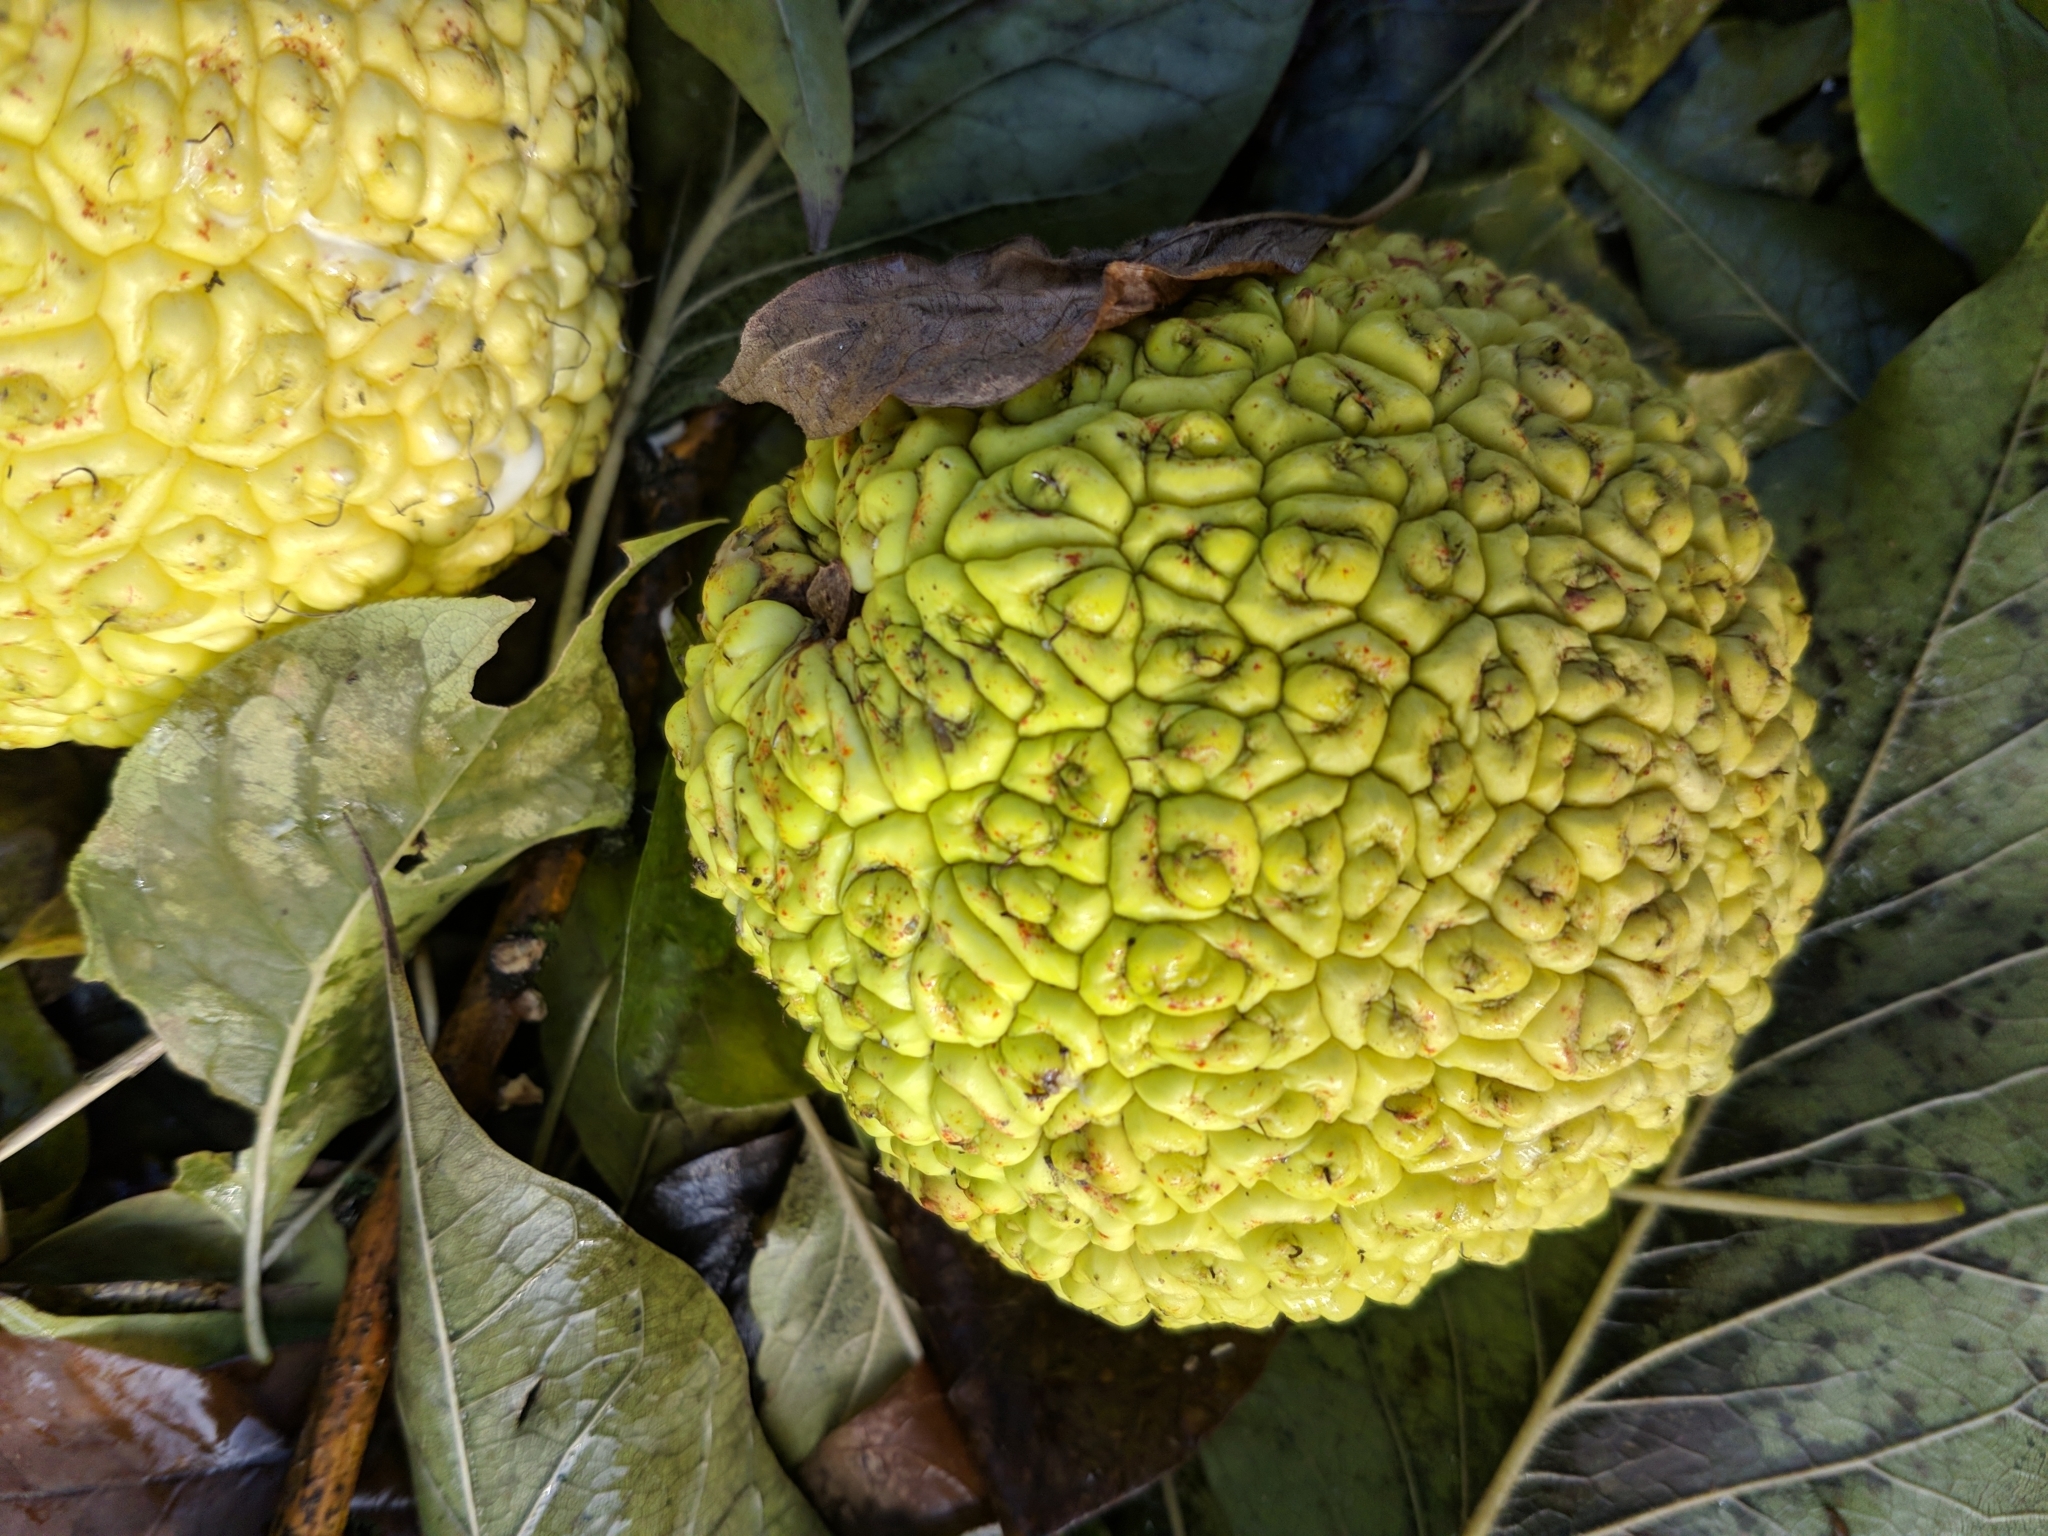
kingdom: Plantae
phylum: Tracheophyta
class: Magnoliopsida
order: Rosales
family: Moraceae
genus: Maclura
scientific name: Maclura pomifera
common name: Osage-orange
